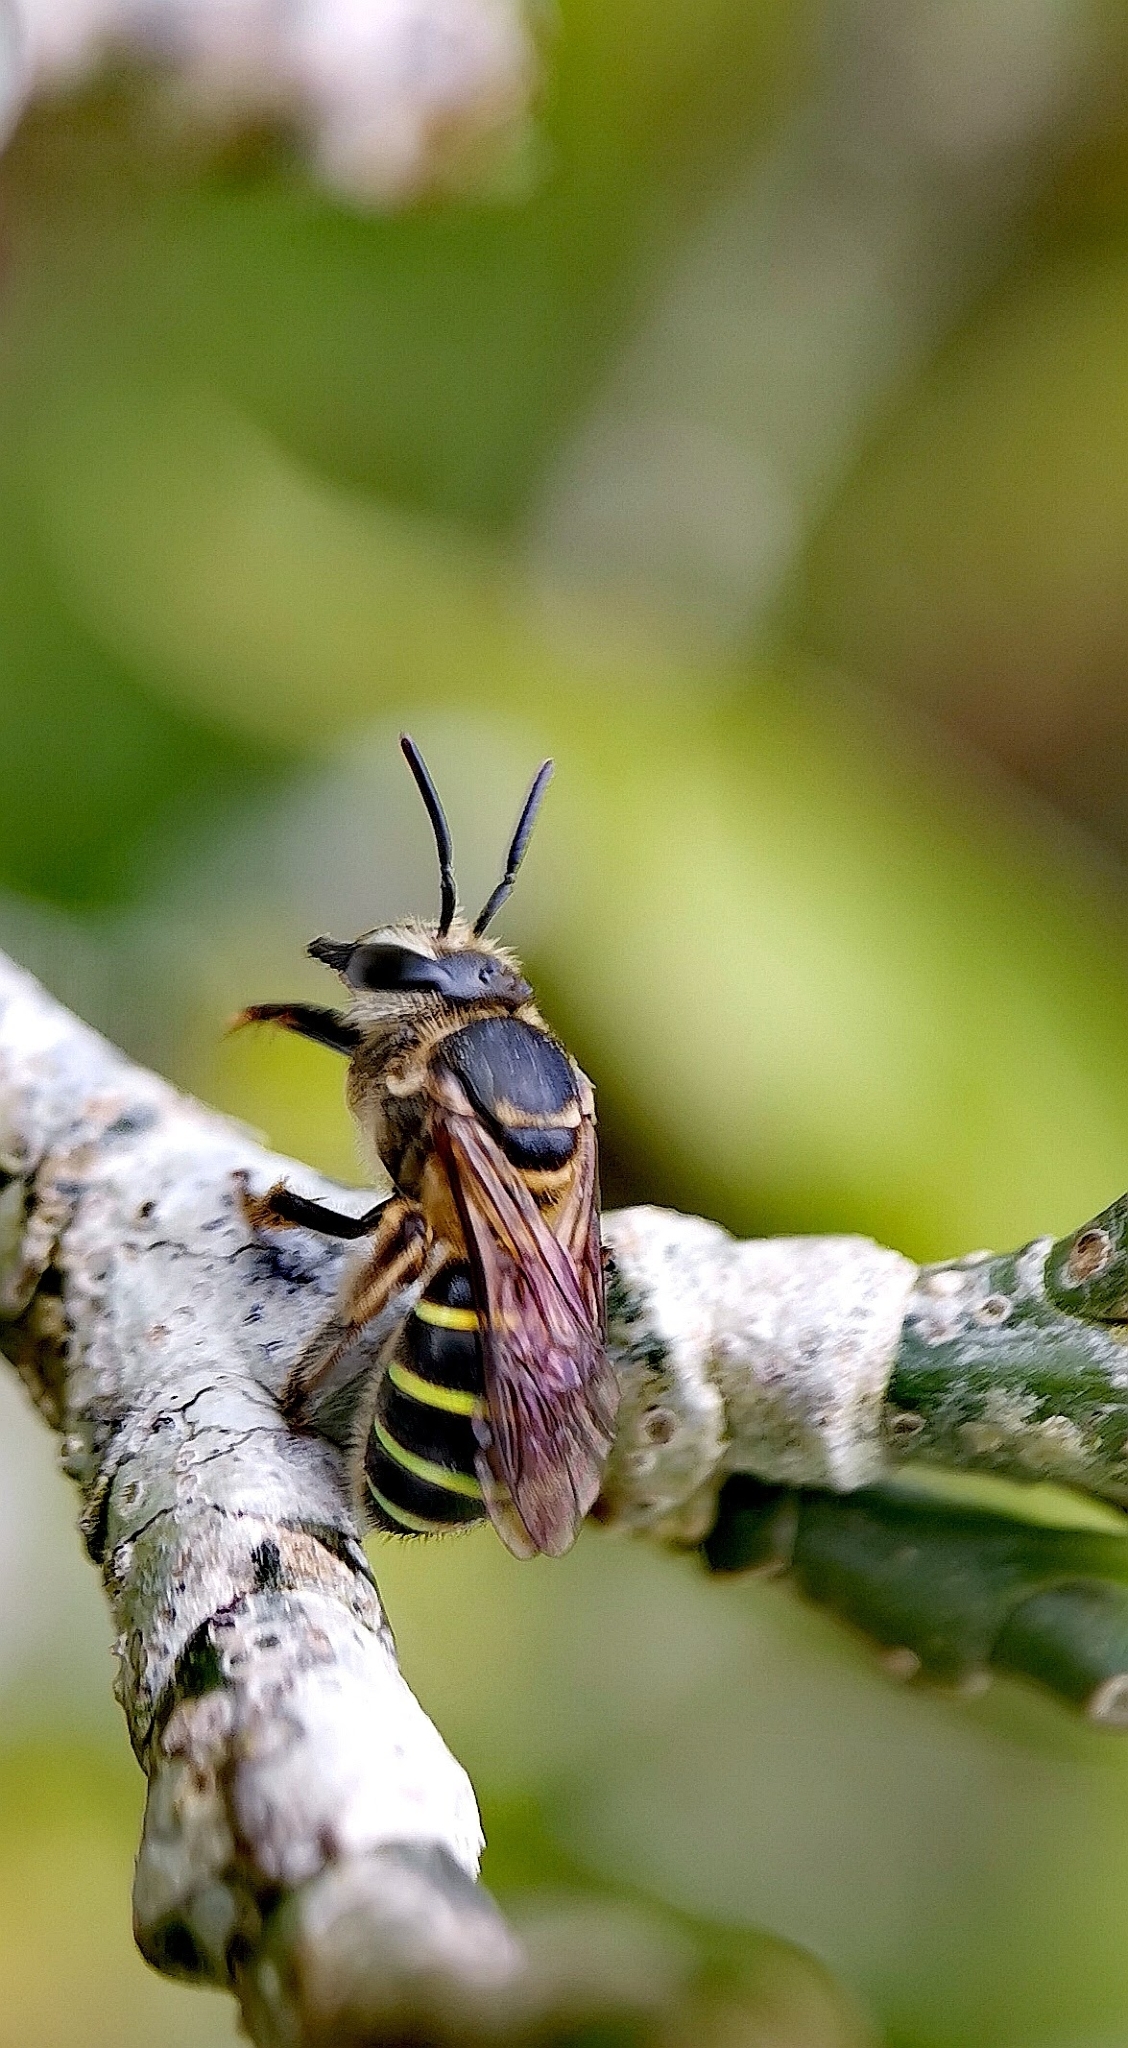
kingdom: Animalia
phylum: Arthropoda
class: Insecta
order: Hymenoptera
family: Halictidae
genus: Nomia
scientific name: Nomia strigata
